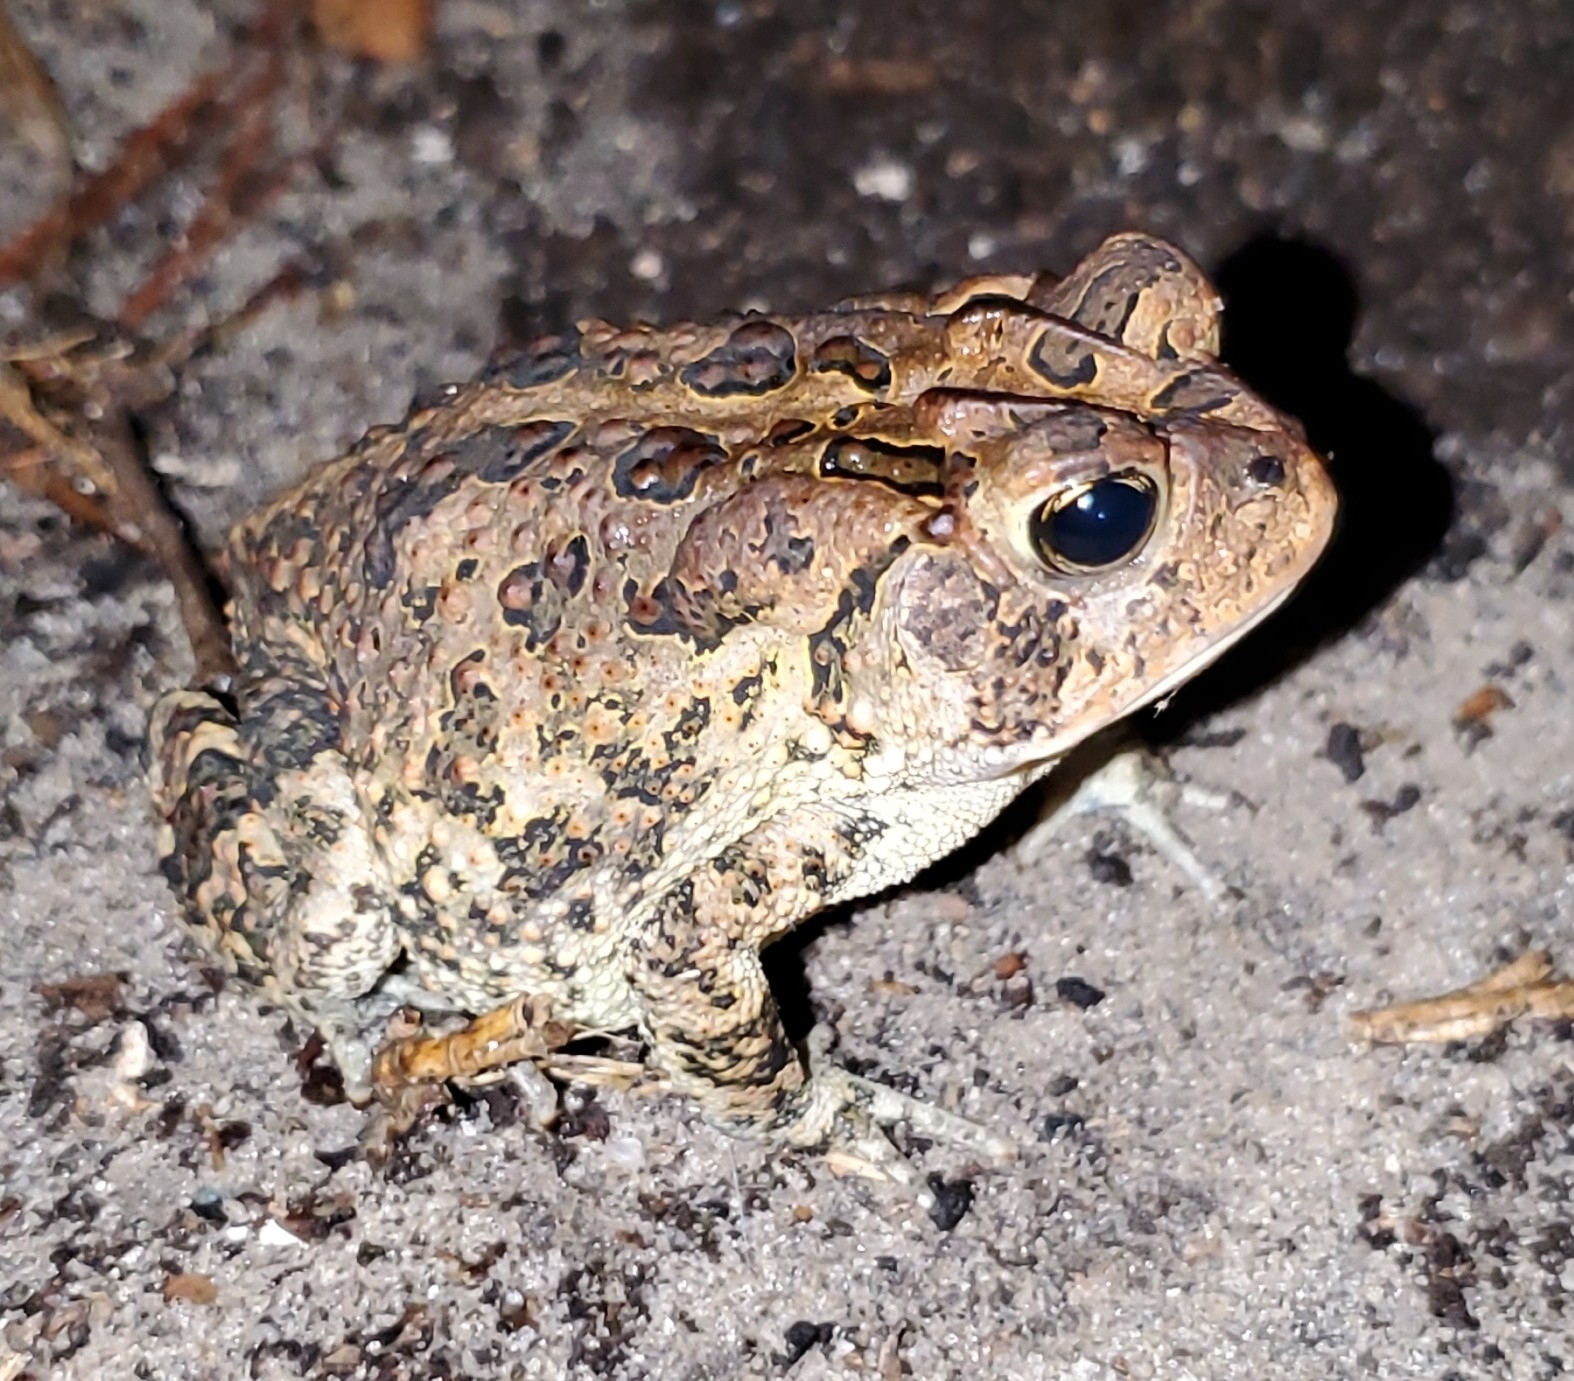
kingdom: Animalia
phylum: Chordata
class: Amphibia
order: Anura
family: Bufonidae
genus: Anaxyrus
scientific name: Anaxyrus terrestris
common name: Southern toad
